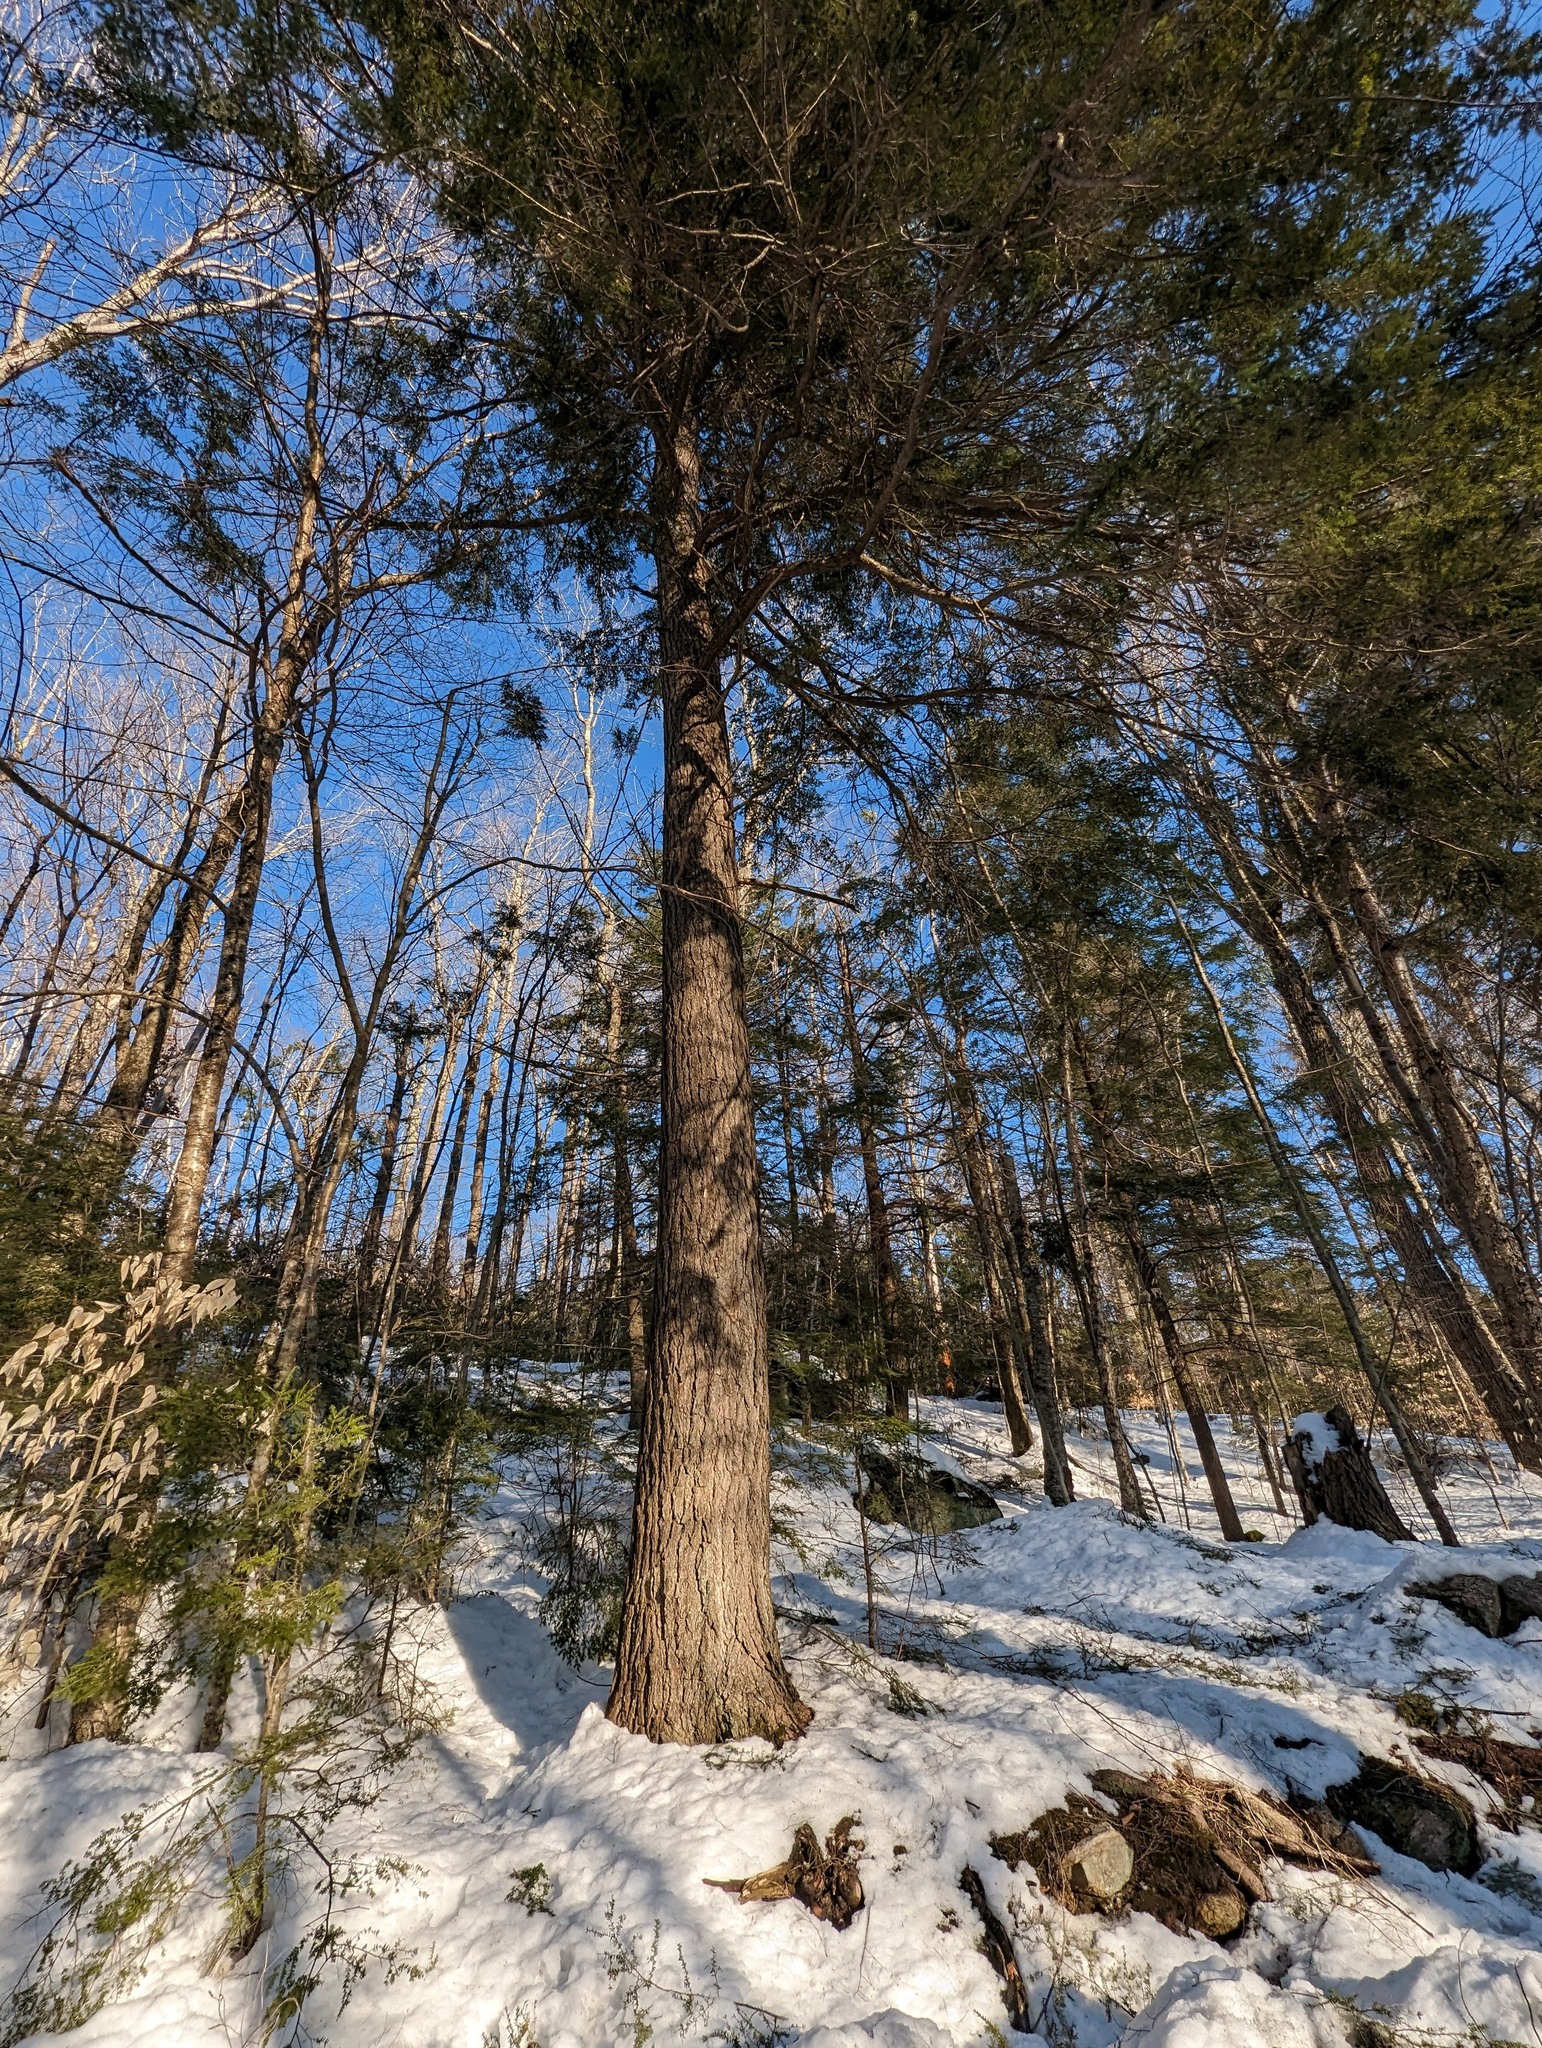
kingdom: Plantae
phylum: Tracheophyta
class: Pinopsida
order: Pinales
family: Pinaceae
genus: Tsuga
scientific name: Tsuga canadensis
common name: Eastern hemlock
